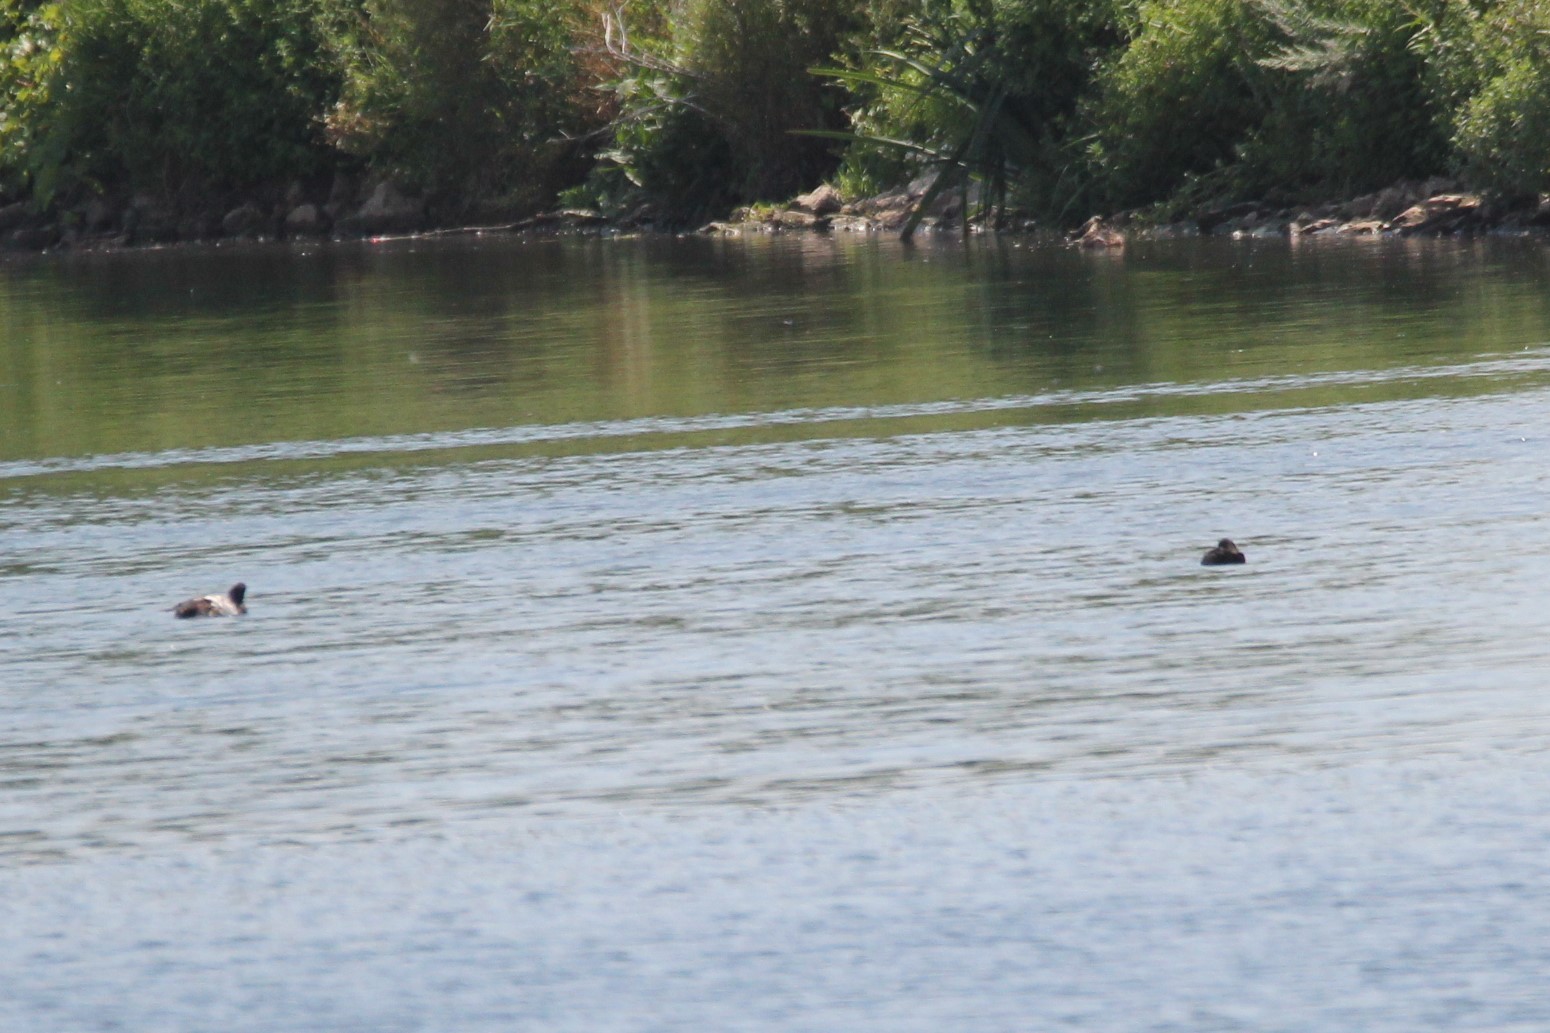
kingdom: Animalia
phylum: Chordata
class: Aves
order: Anseriformes
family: Anatidae
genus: Aythya
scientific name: Aythya marila
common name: Greater scaup
